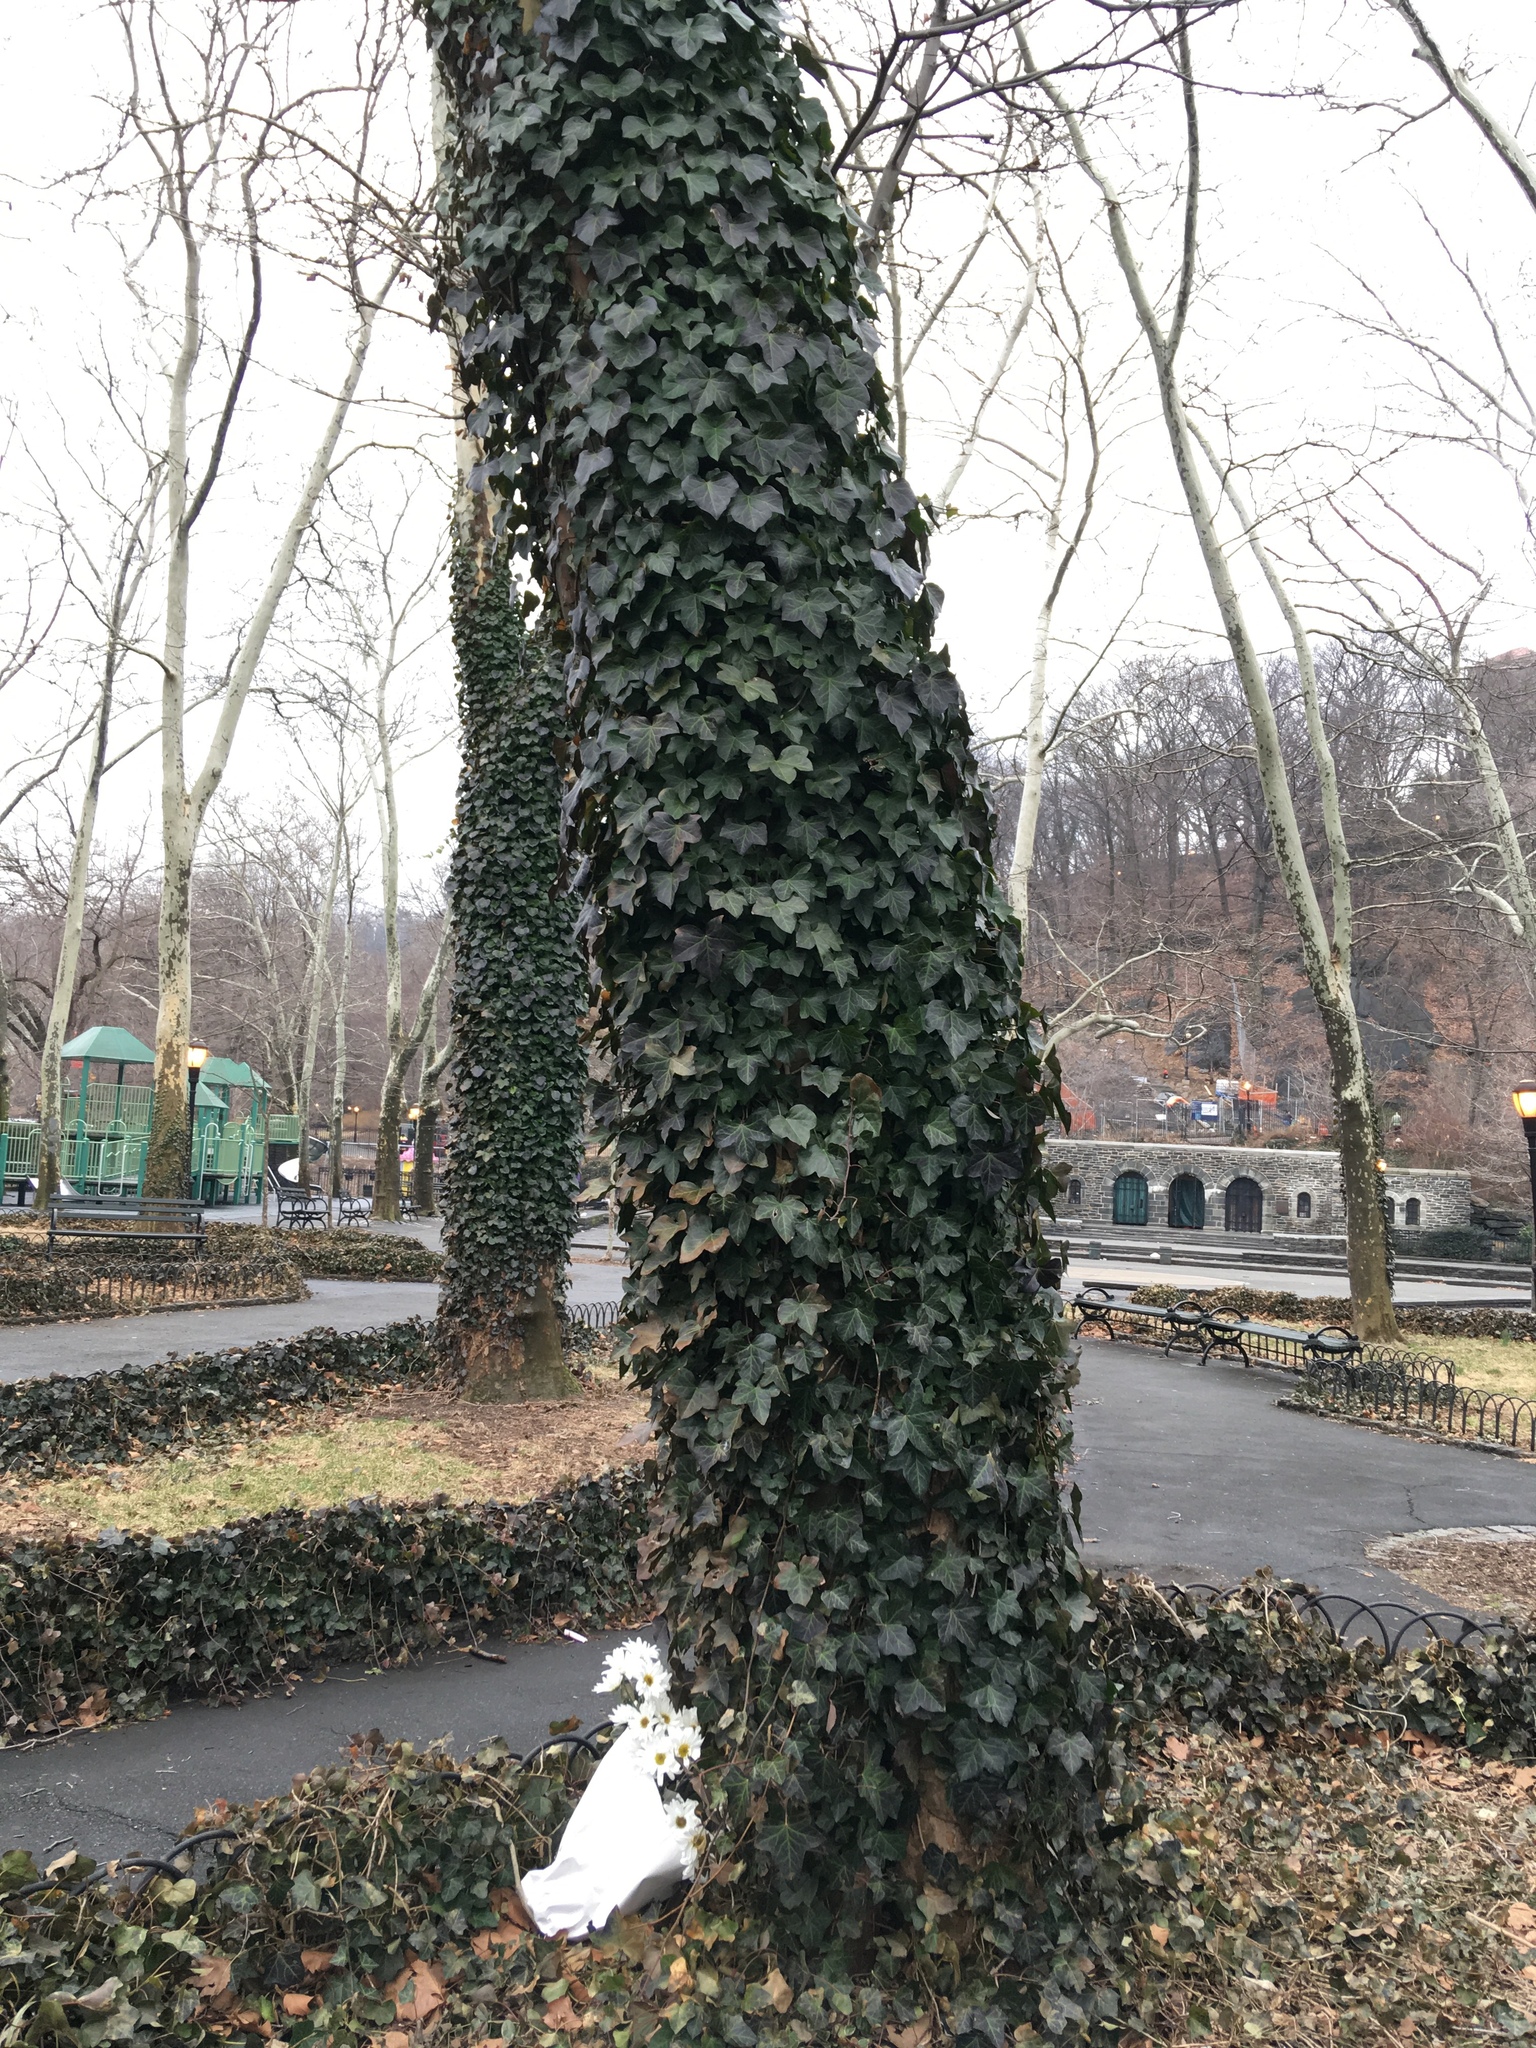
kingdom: Plantae
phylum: Tracheophyta
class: Magnoliopsida
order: Apiales
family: Araliaceae
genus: Hedera
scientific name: Hedera helix
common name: Ivy
